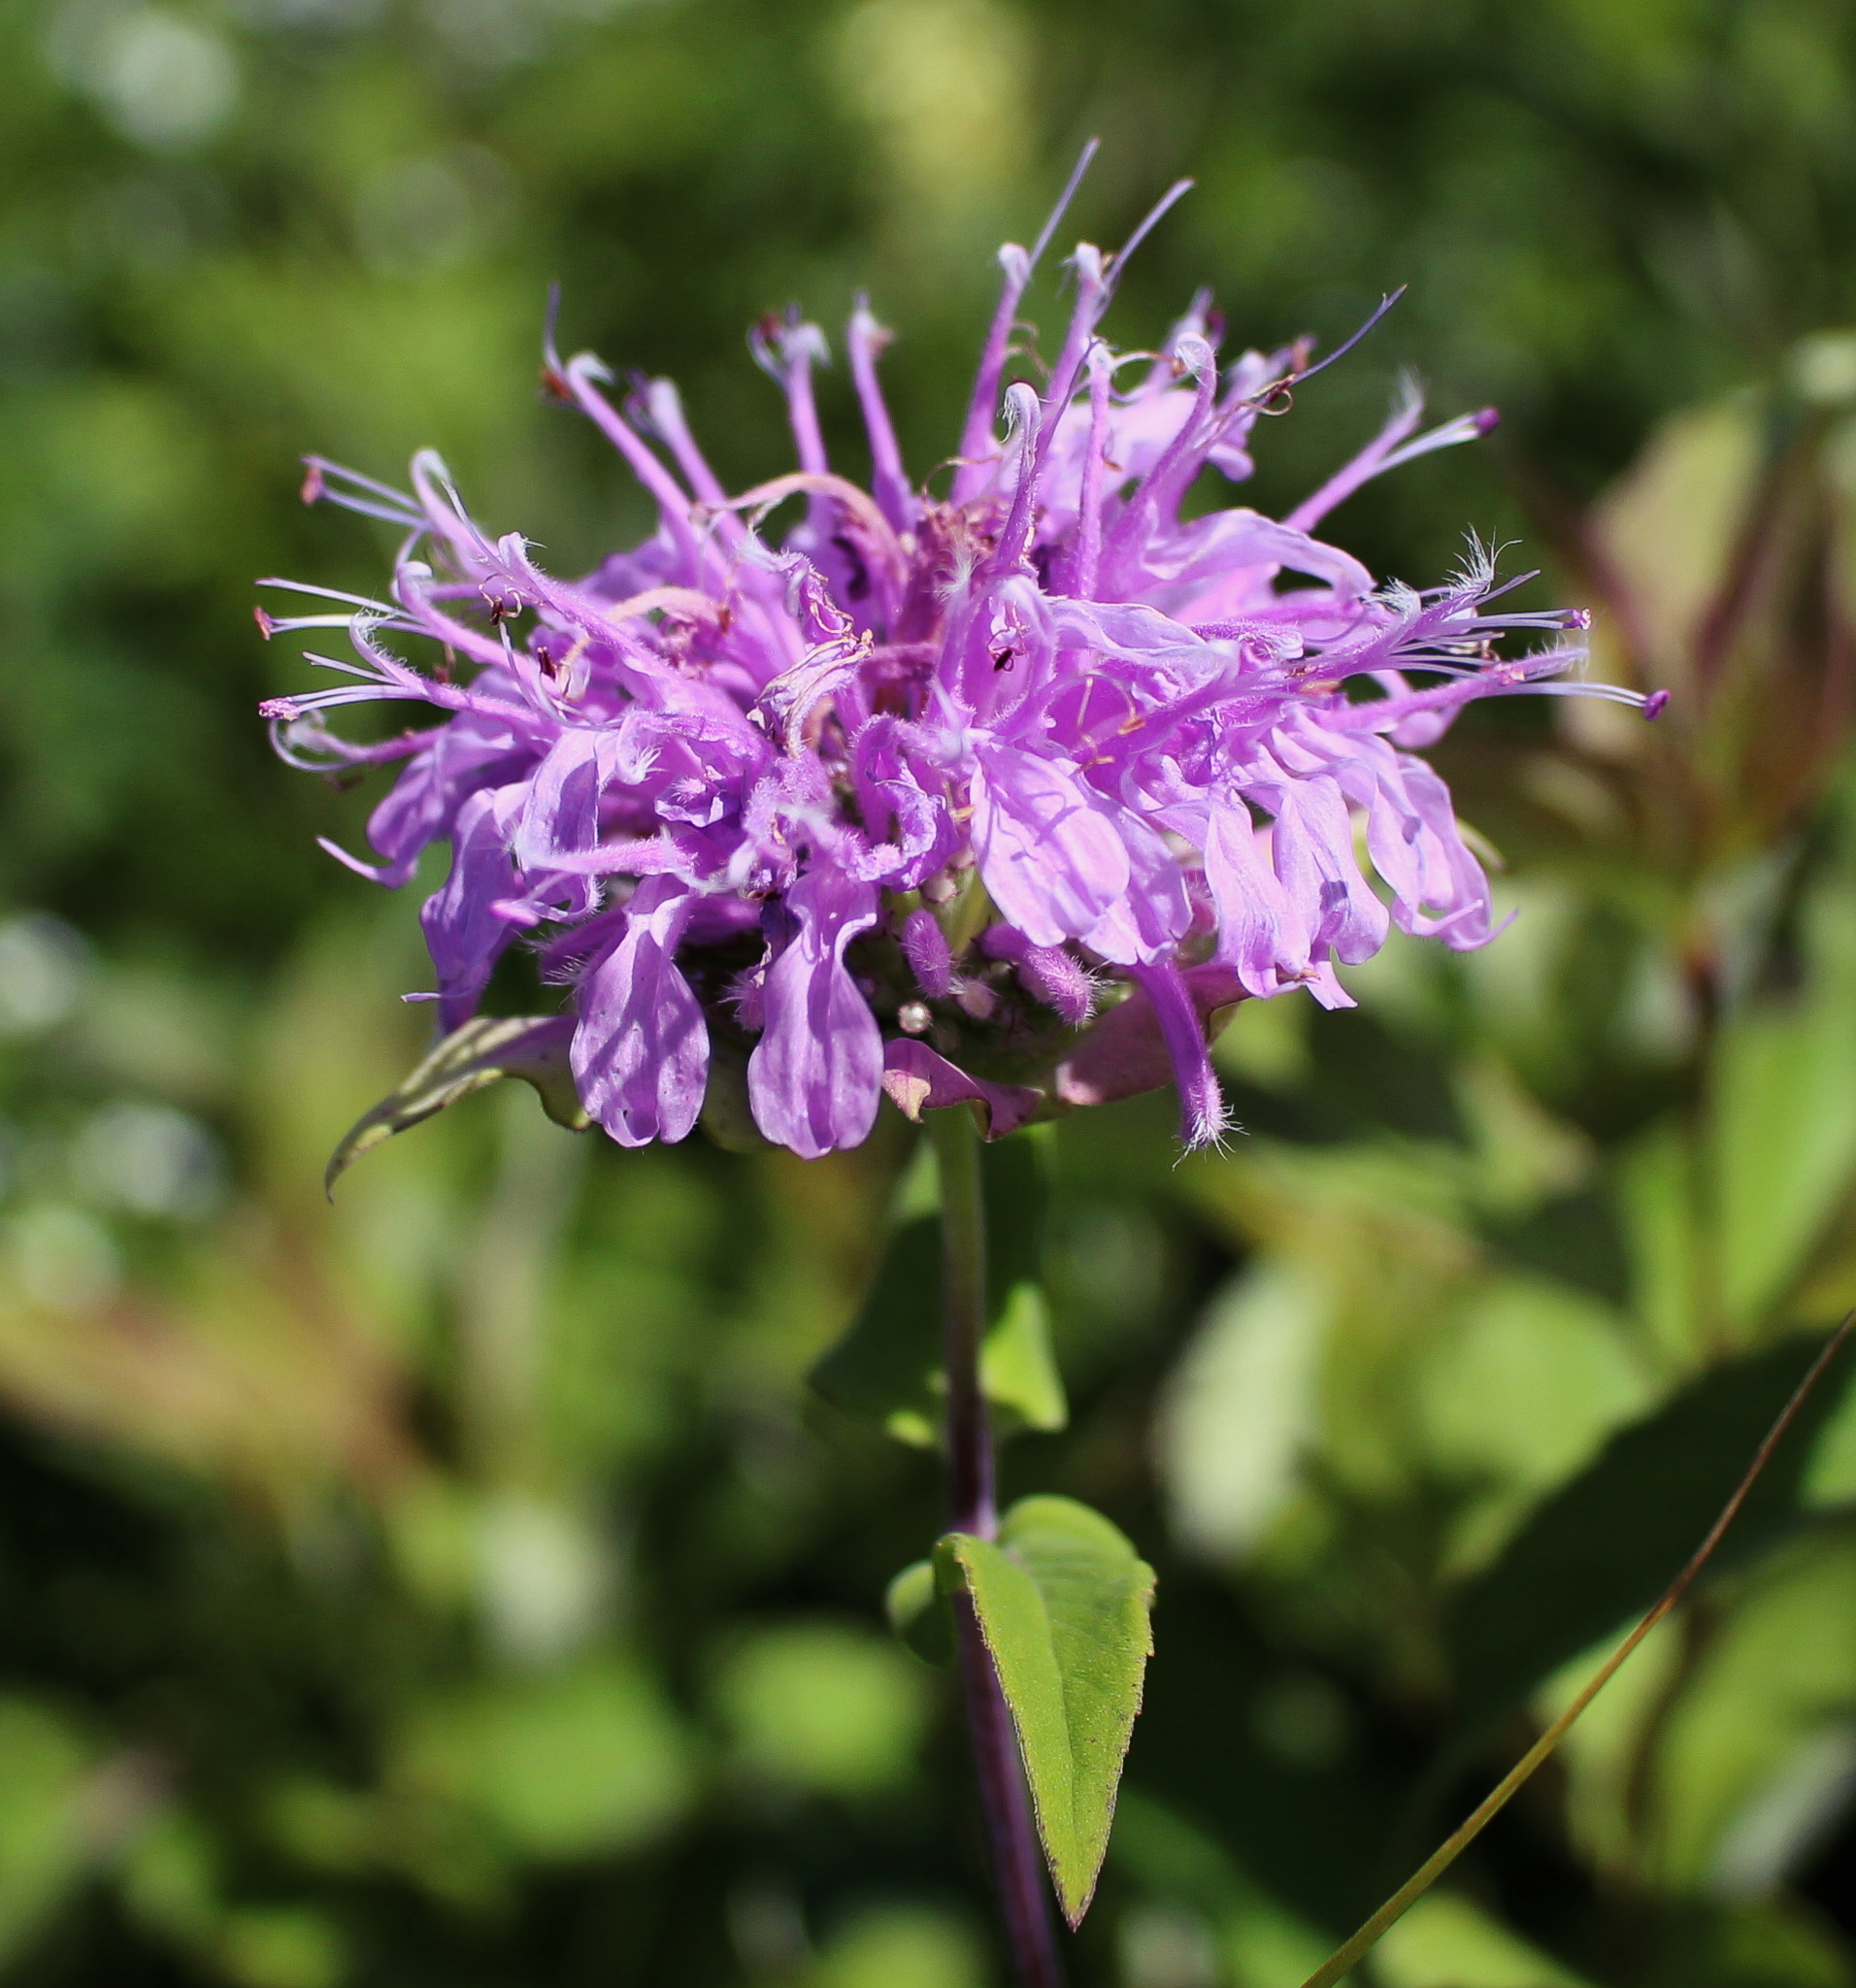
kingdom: Plantae
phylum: Tracheophyta
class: Magnoliopsida
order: Lamiales
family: Lamiaceae
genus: Monarda
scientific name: Monarda fistulosa
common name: Purple beebalm
